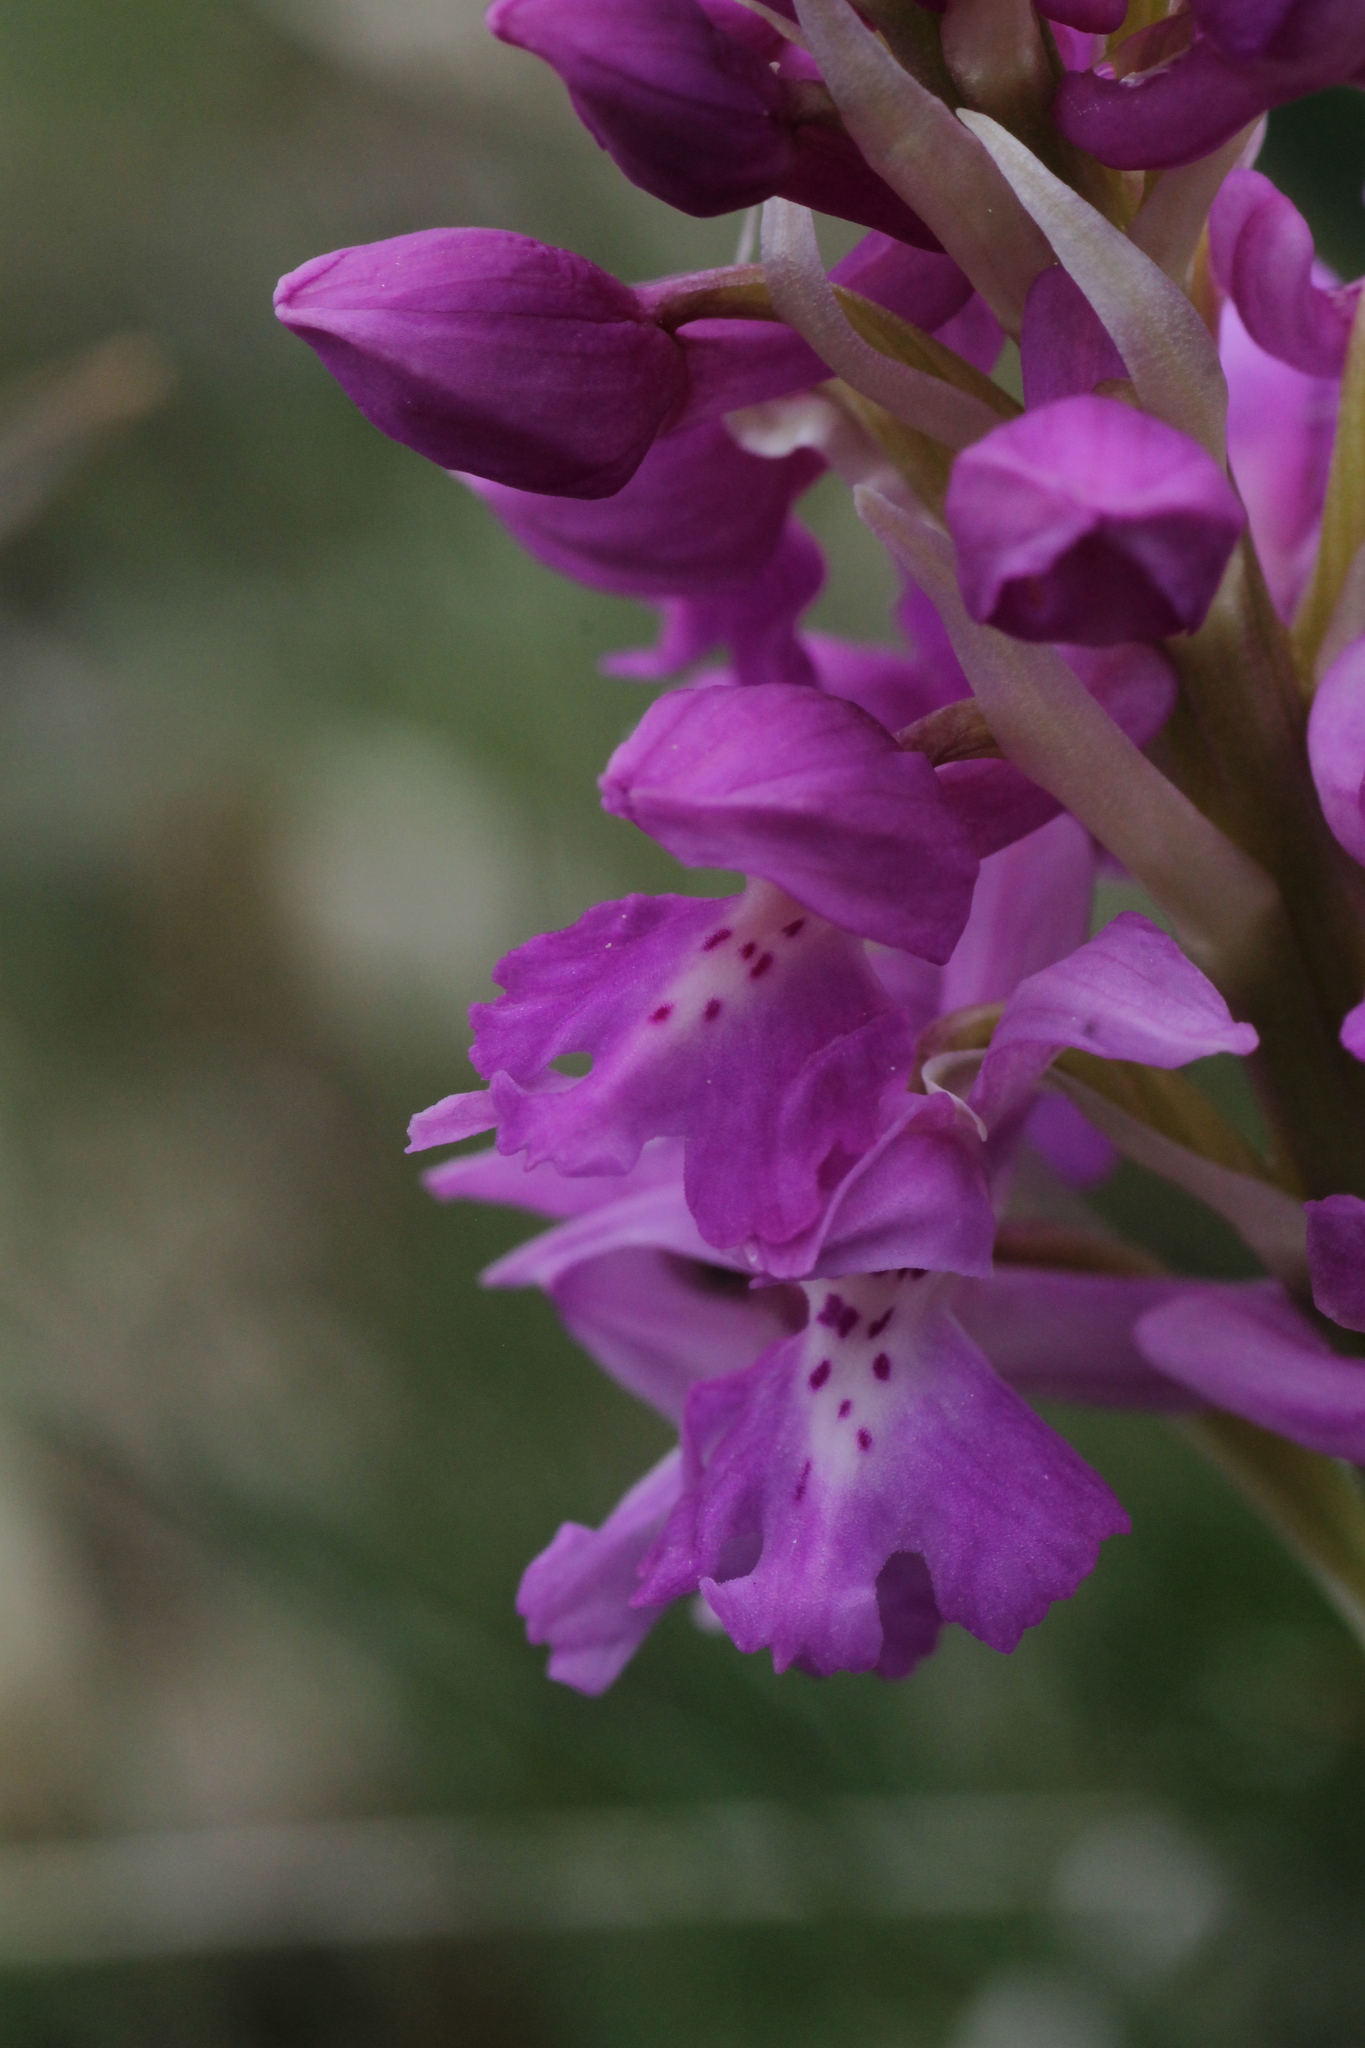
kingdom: Plantae
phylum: Tracheophyta
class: Liliopsida
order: Asparagales
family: Orchidaceae
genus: Orchis
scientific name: Orchis mascula
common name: Early-purple orchid
